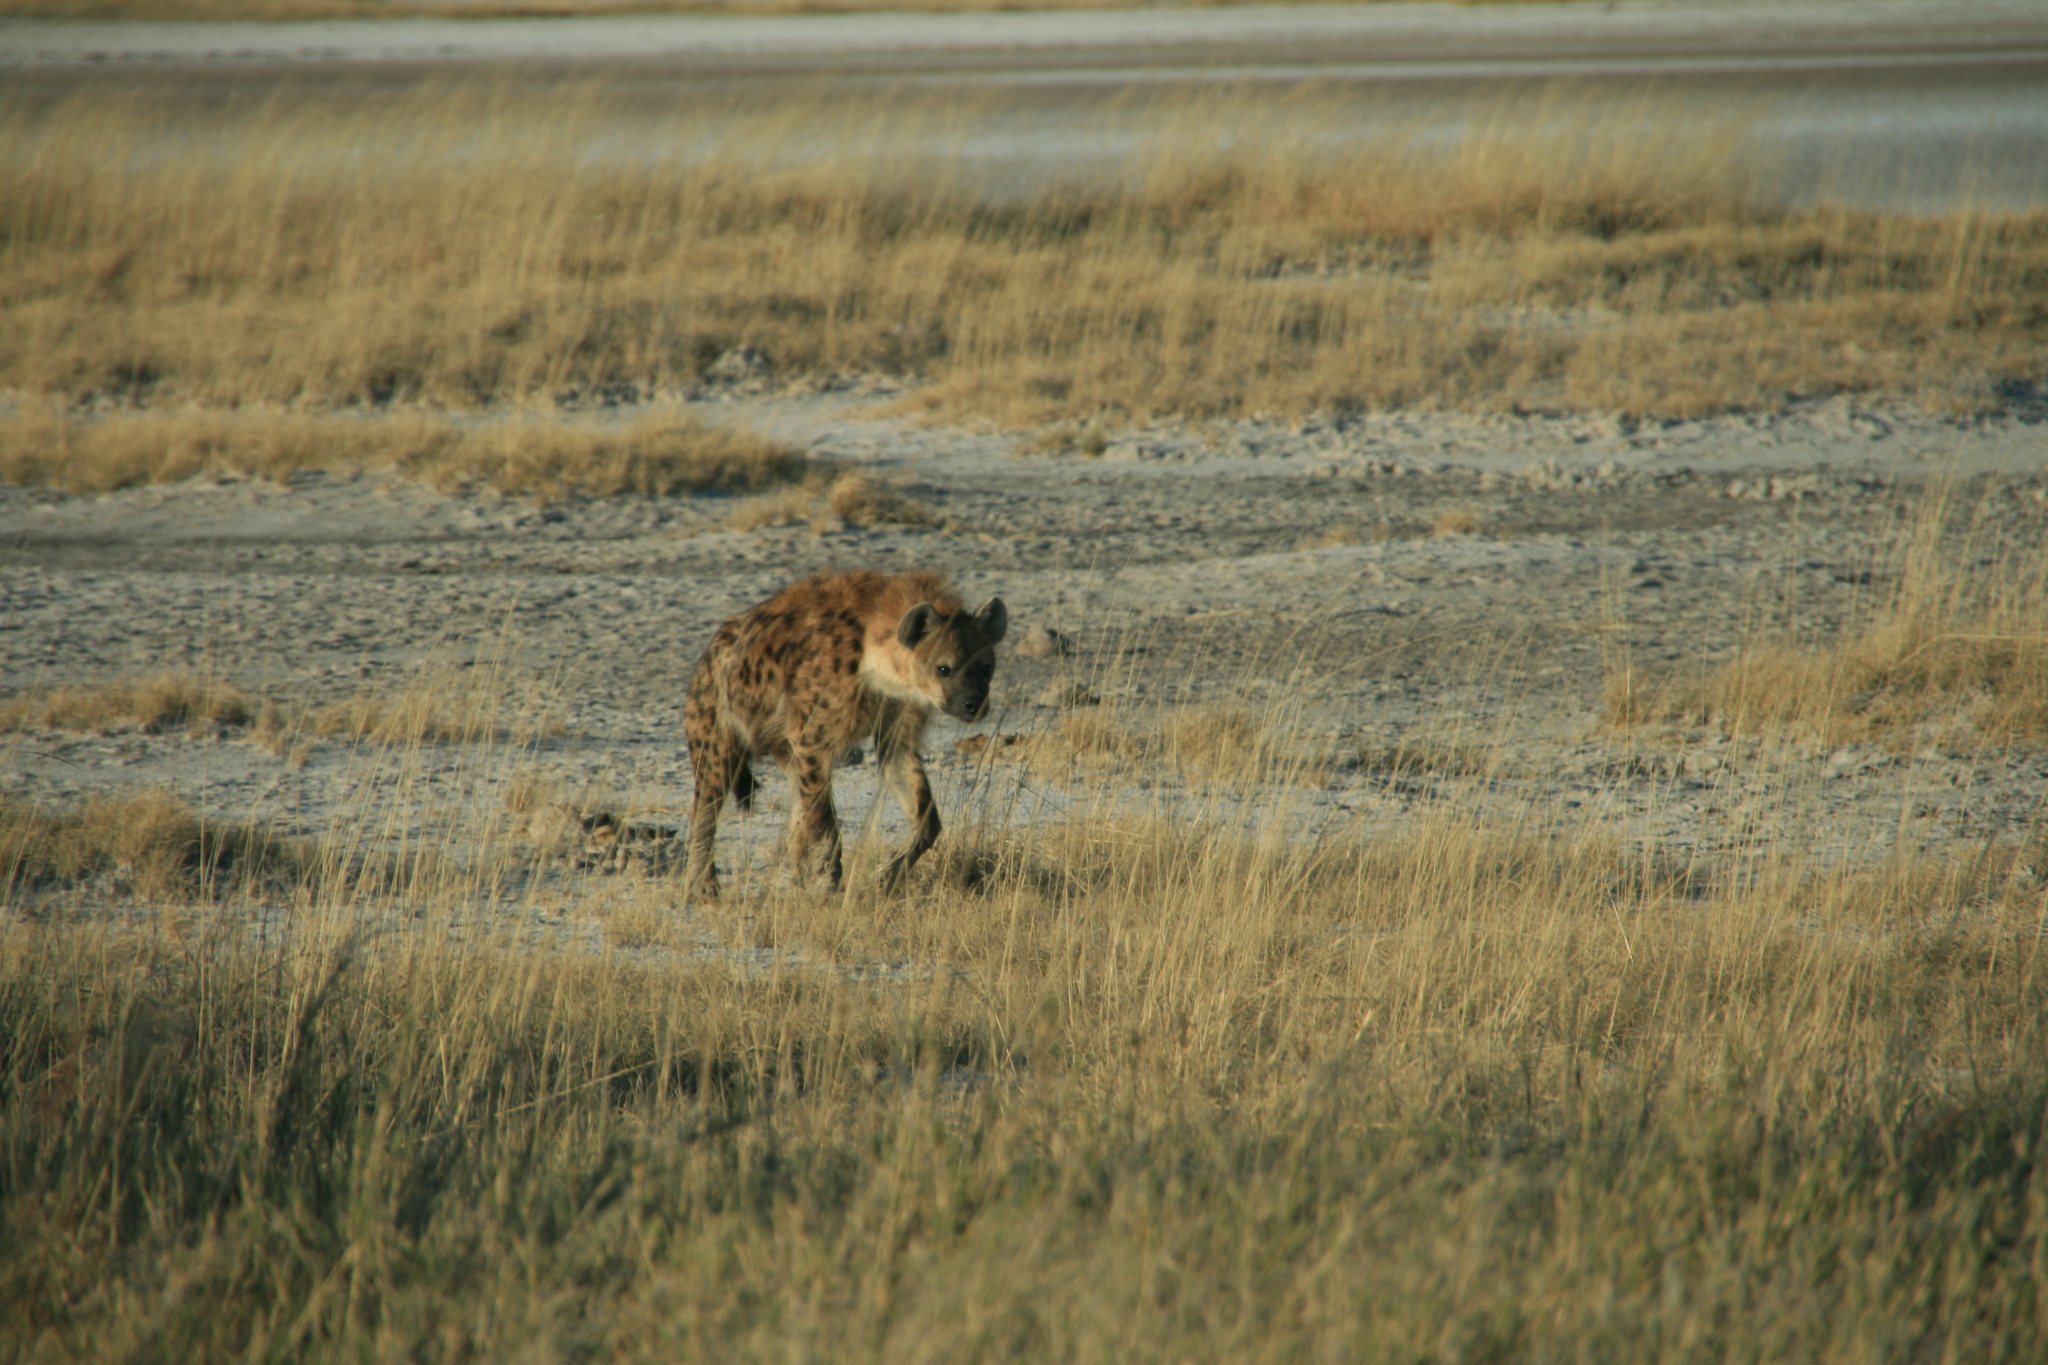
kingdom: Animalia
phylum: Chordata
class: Mammalia
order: Carnivora
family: Hyaenidae
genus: Crocuta
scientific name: Crocuta crocuta
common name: Spotted hyaena
